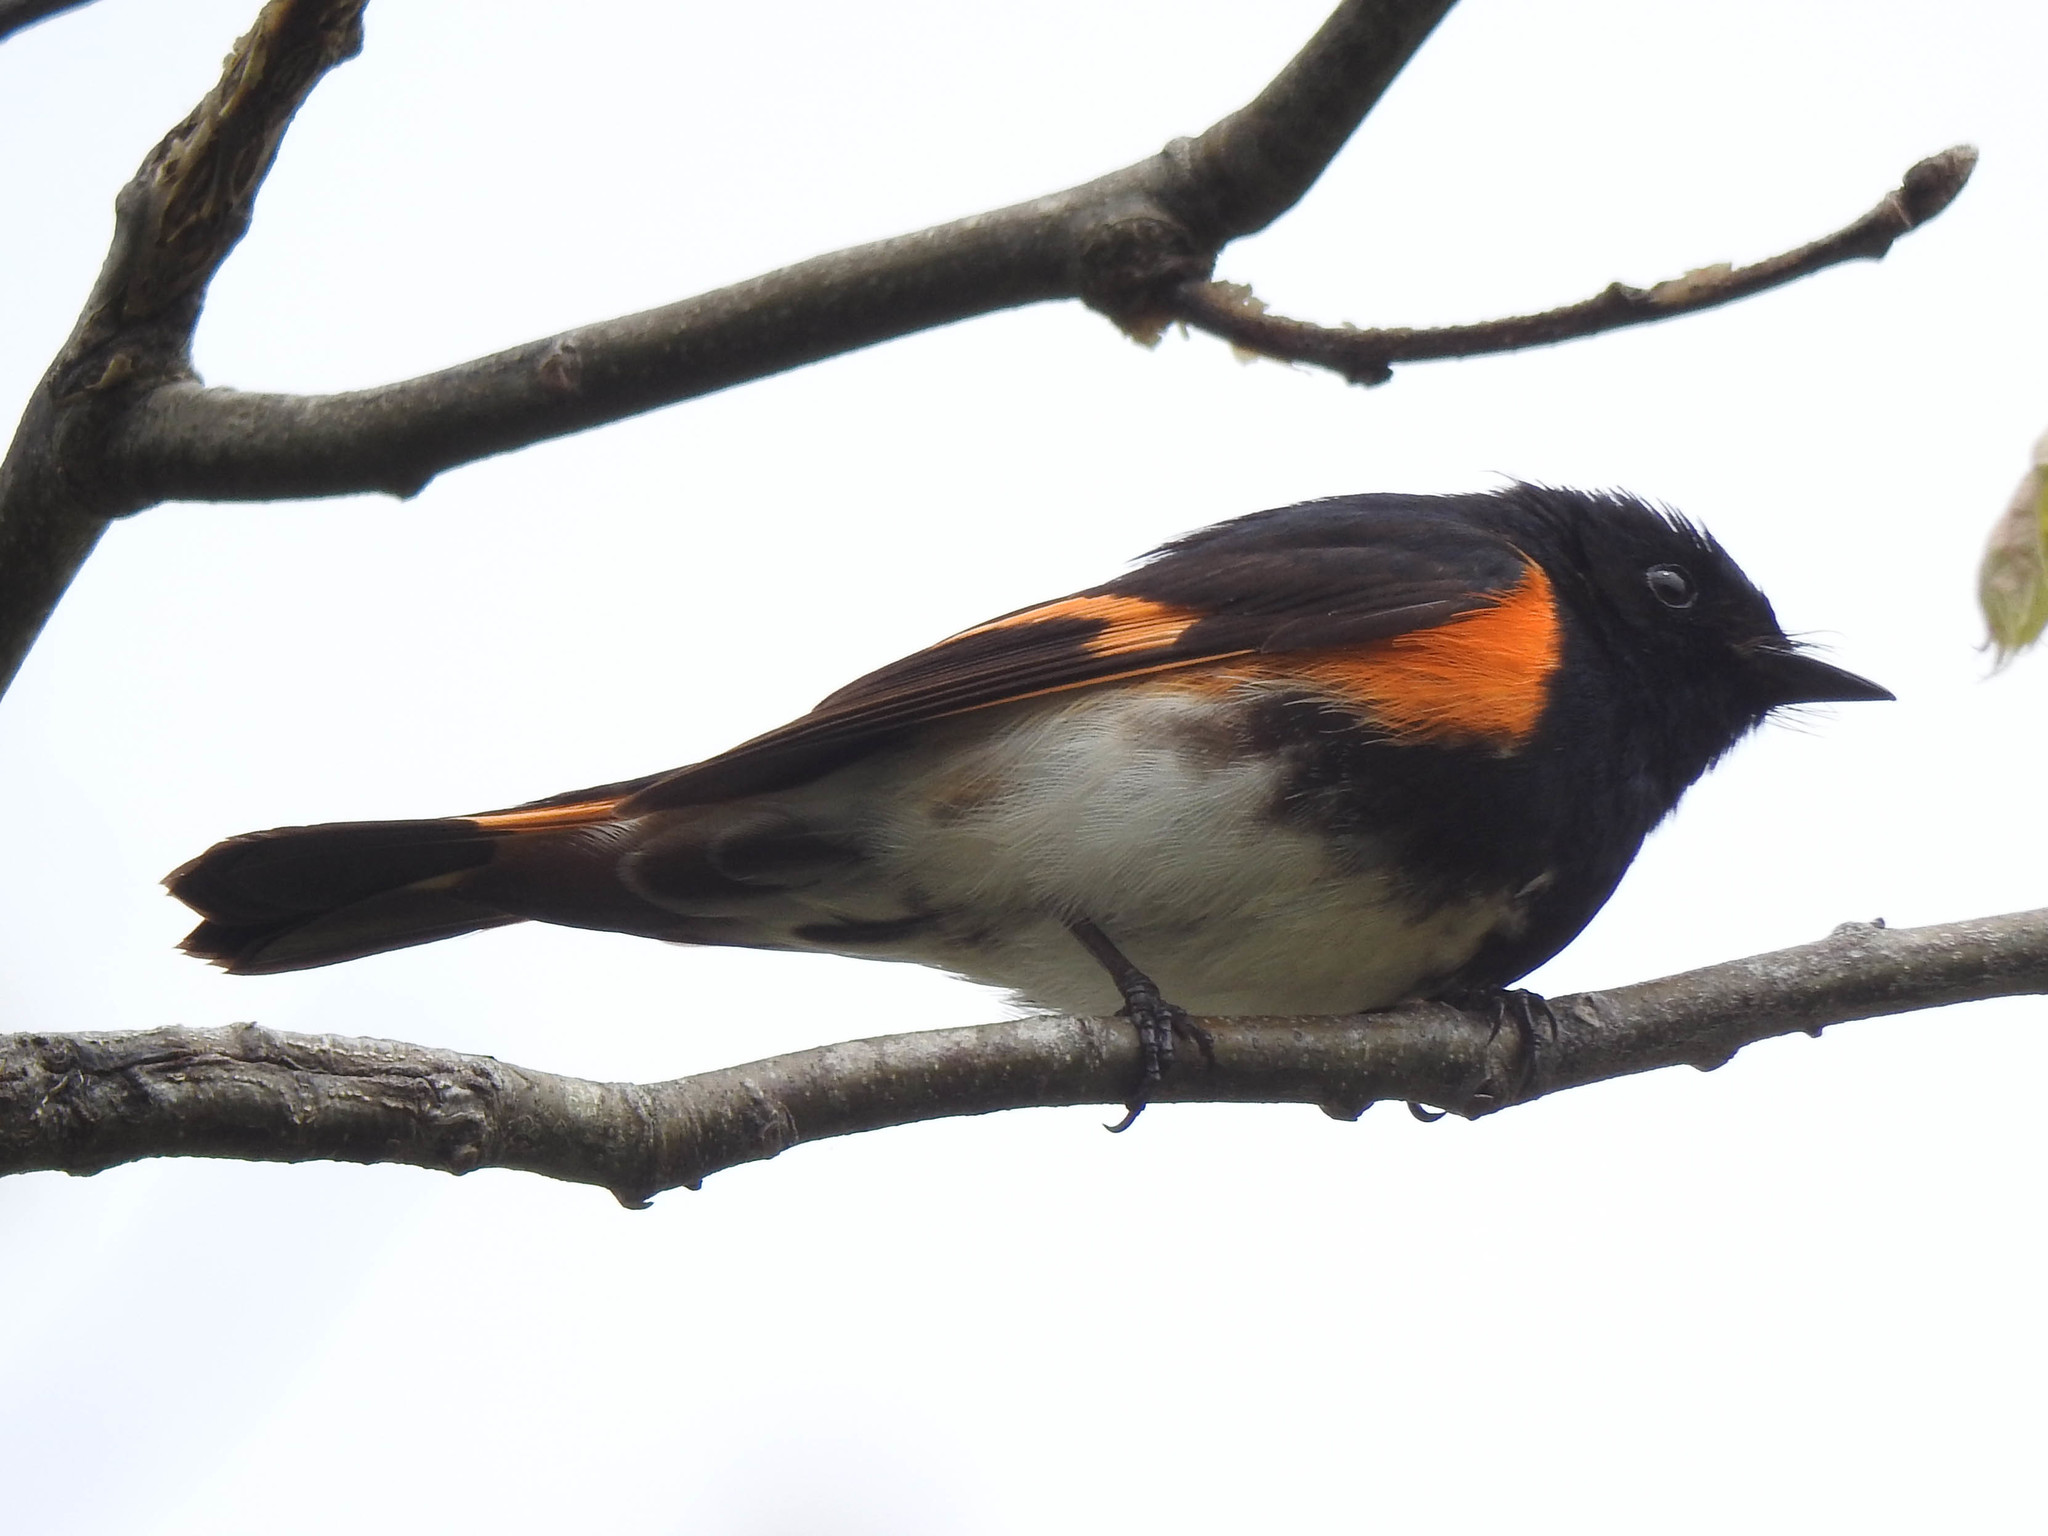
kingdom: Animalia
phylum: Chordata
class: Aves
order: Passeriformes
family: Parulidae
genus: Setophaga
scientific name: Setophaga ruticilla
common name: American redstart
